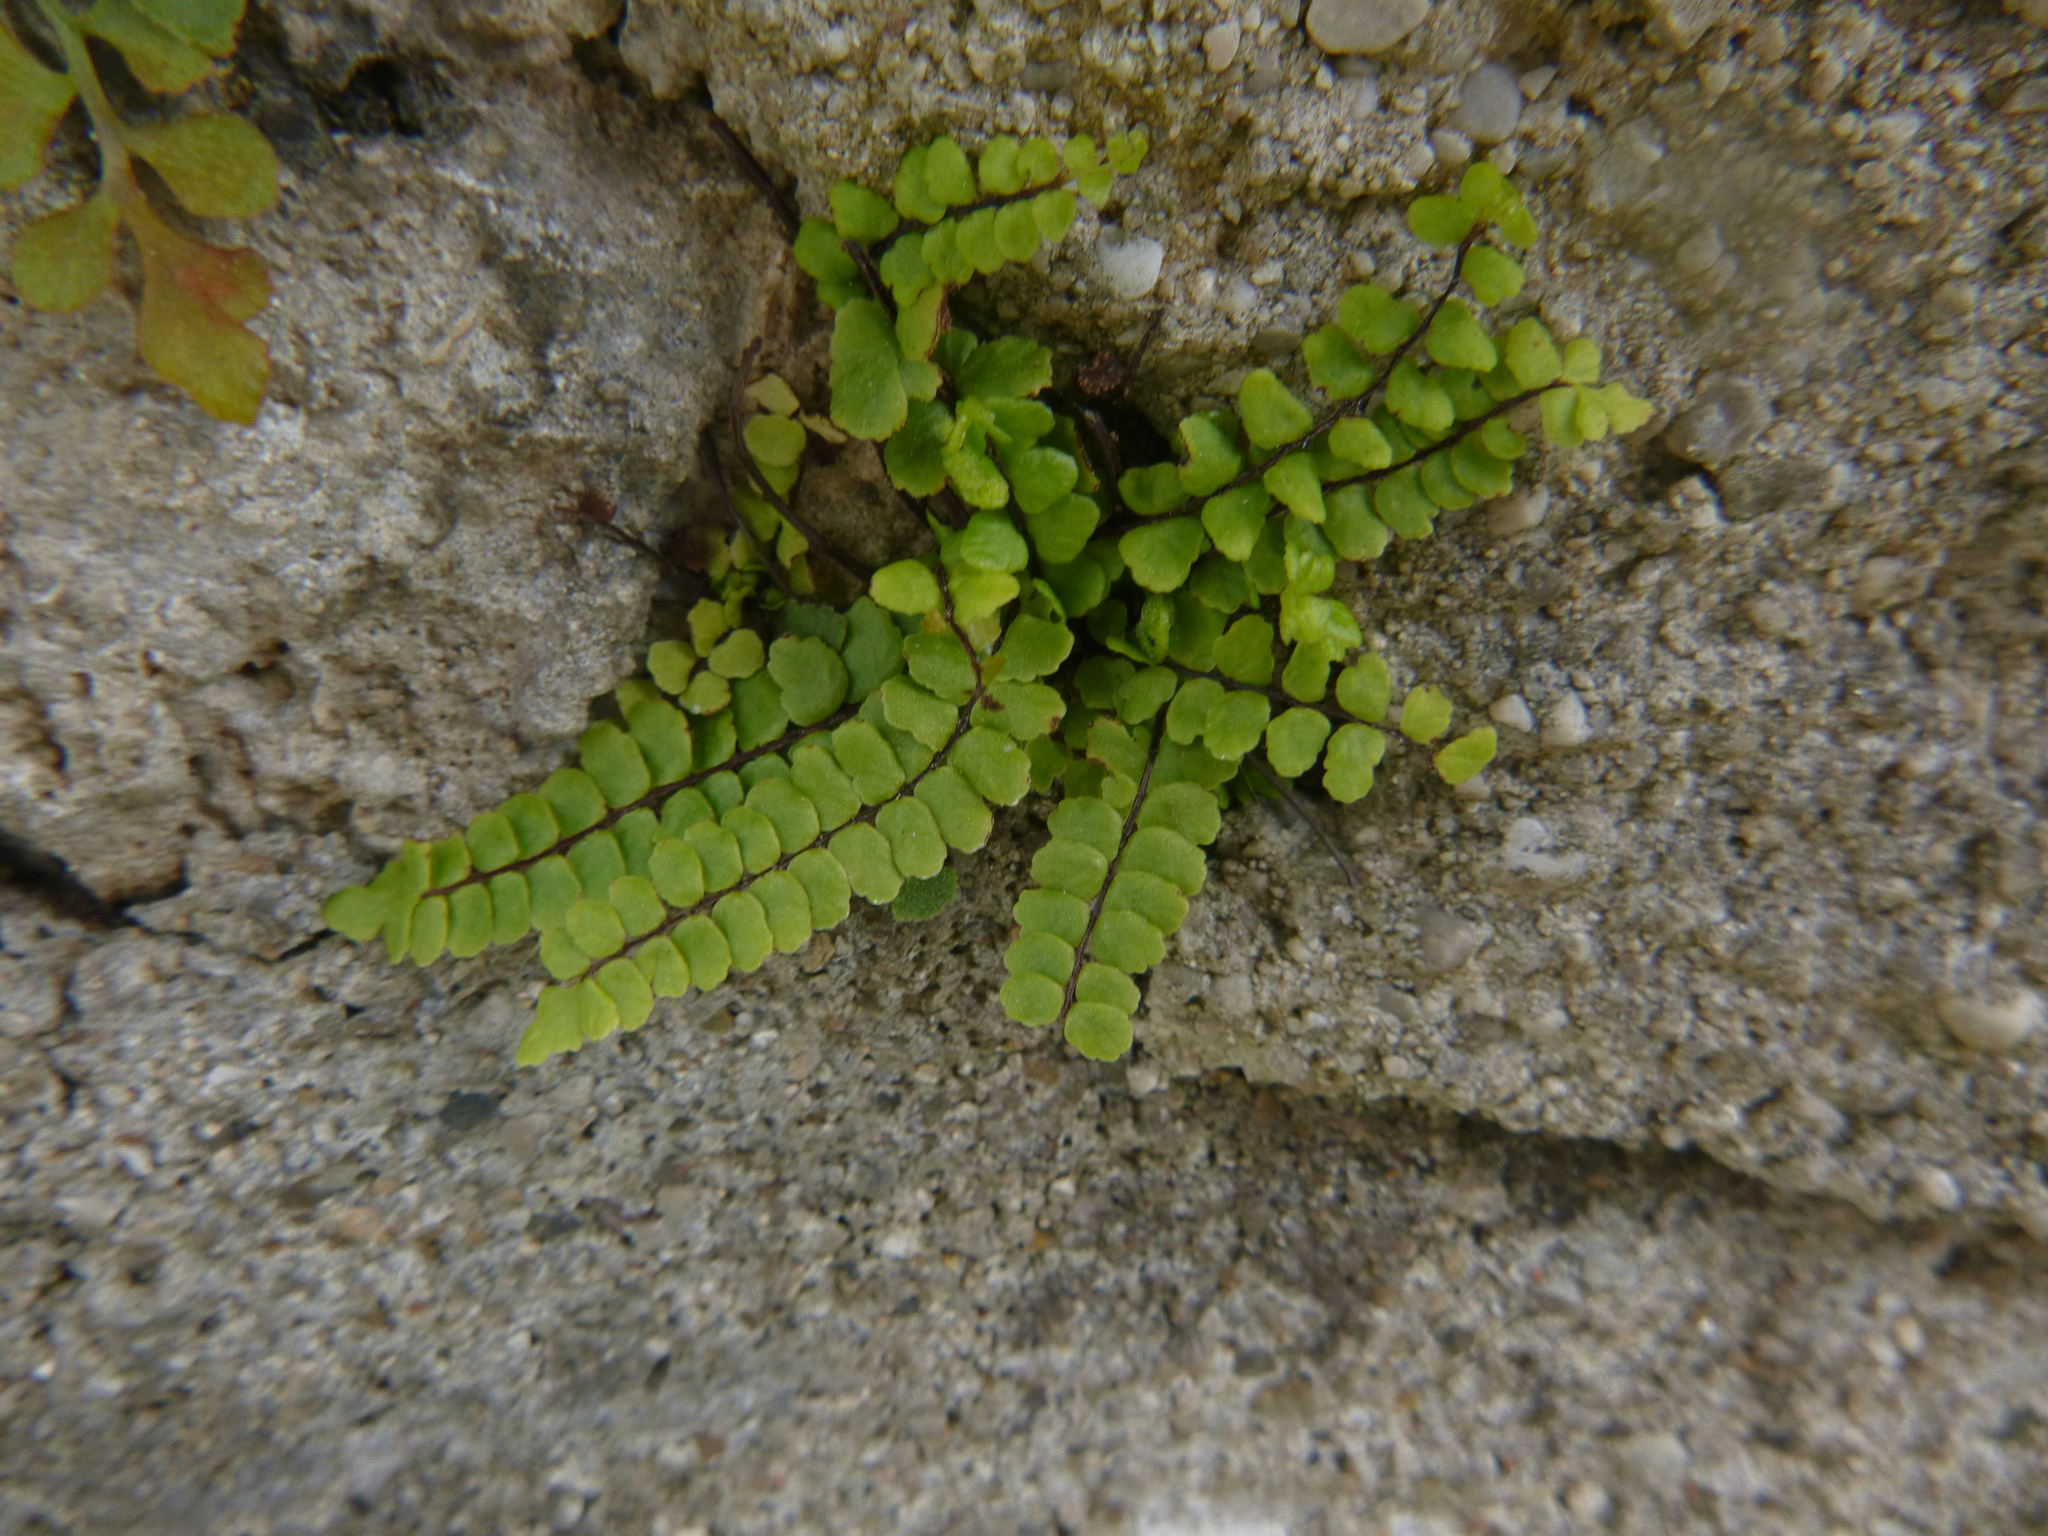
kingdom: Plantae
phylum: Tracheophyta
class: Polypodiopsida
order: Polypodiales
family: Aspleniaceae
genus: Asplenium
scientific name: Asplenium trichomanes
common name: Maidenhair spleenwort
